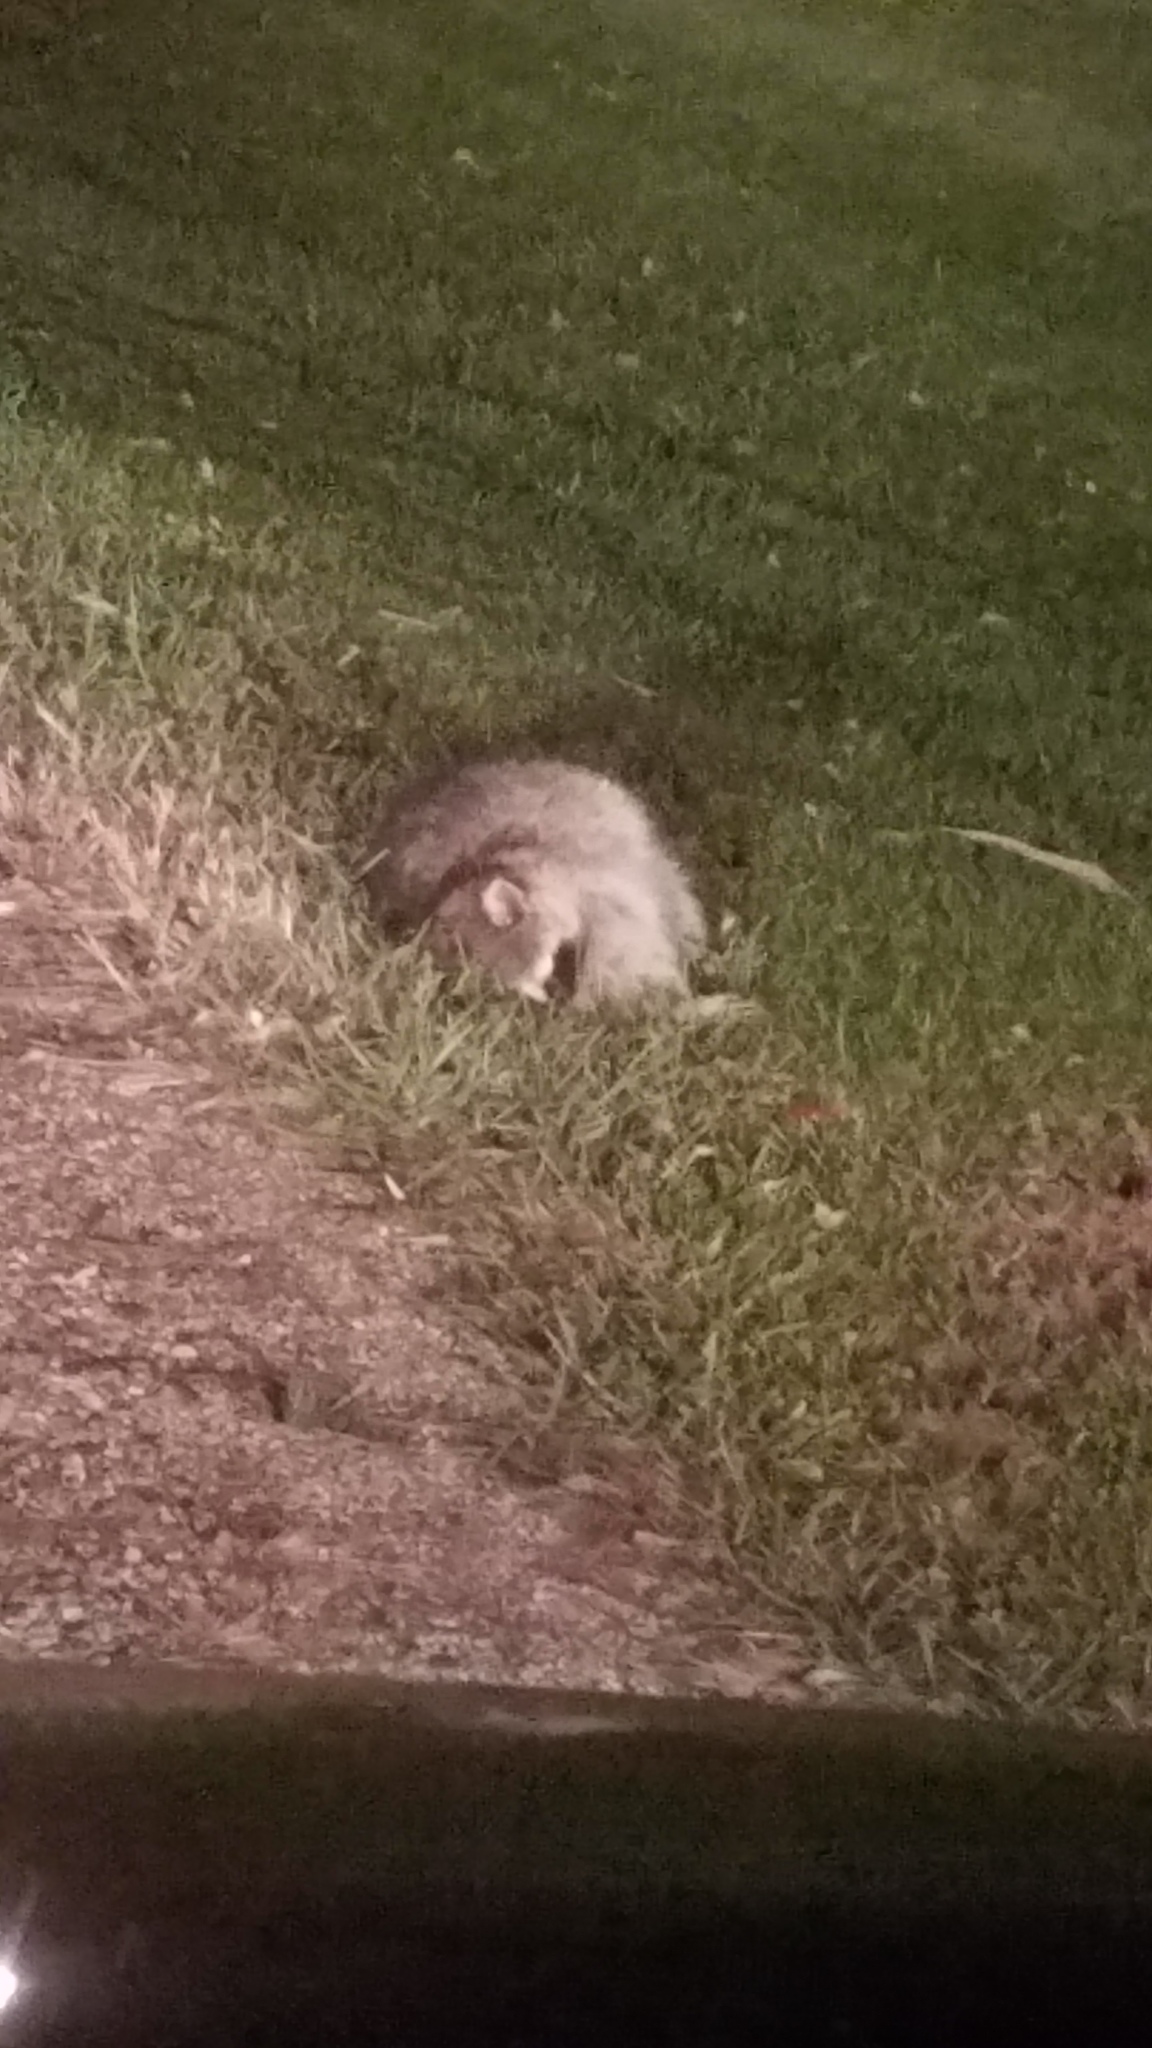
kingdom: Animalia
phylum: Chordata
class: Mammalia
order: Carnivora
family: Procyonidae
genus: Procyon
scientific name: Procyon lotor
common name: Raccoon
